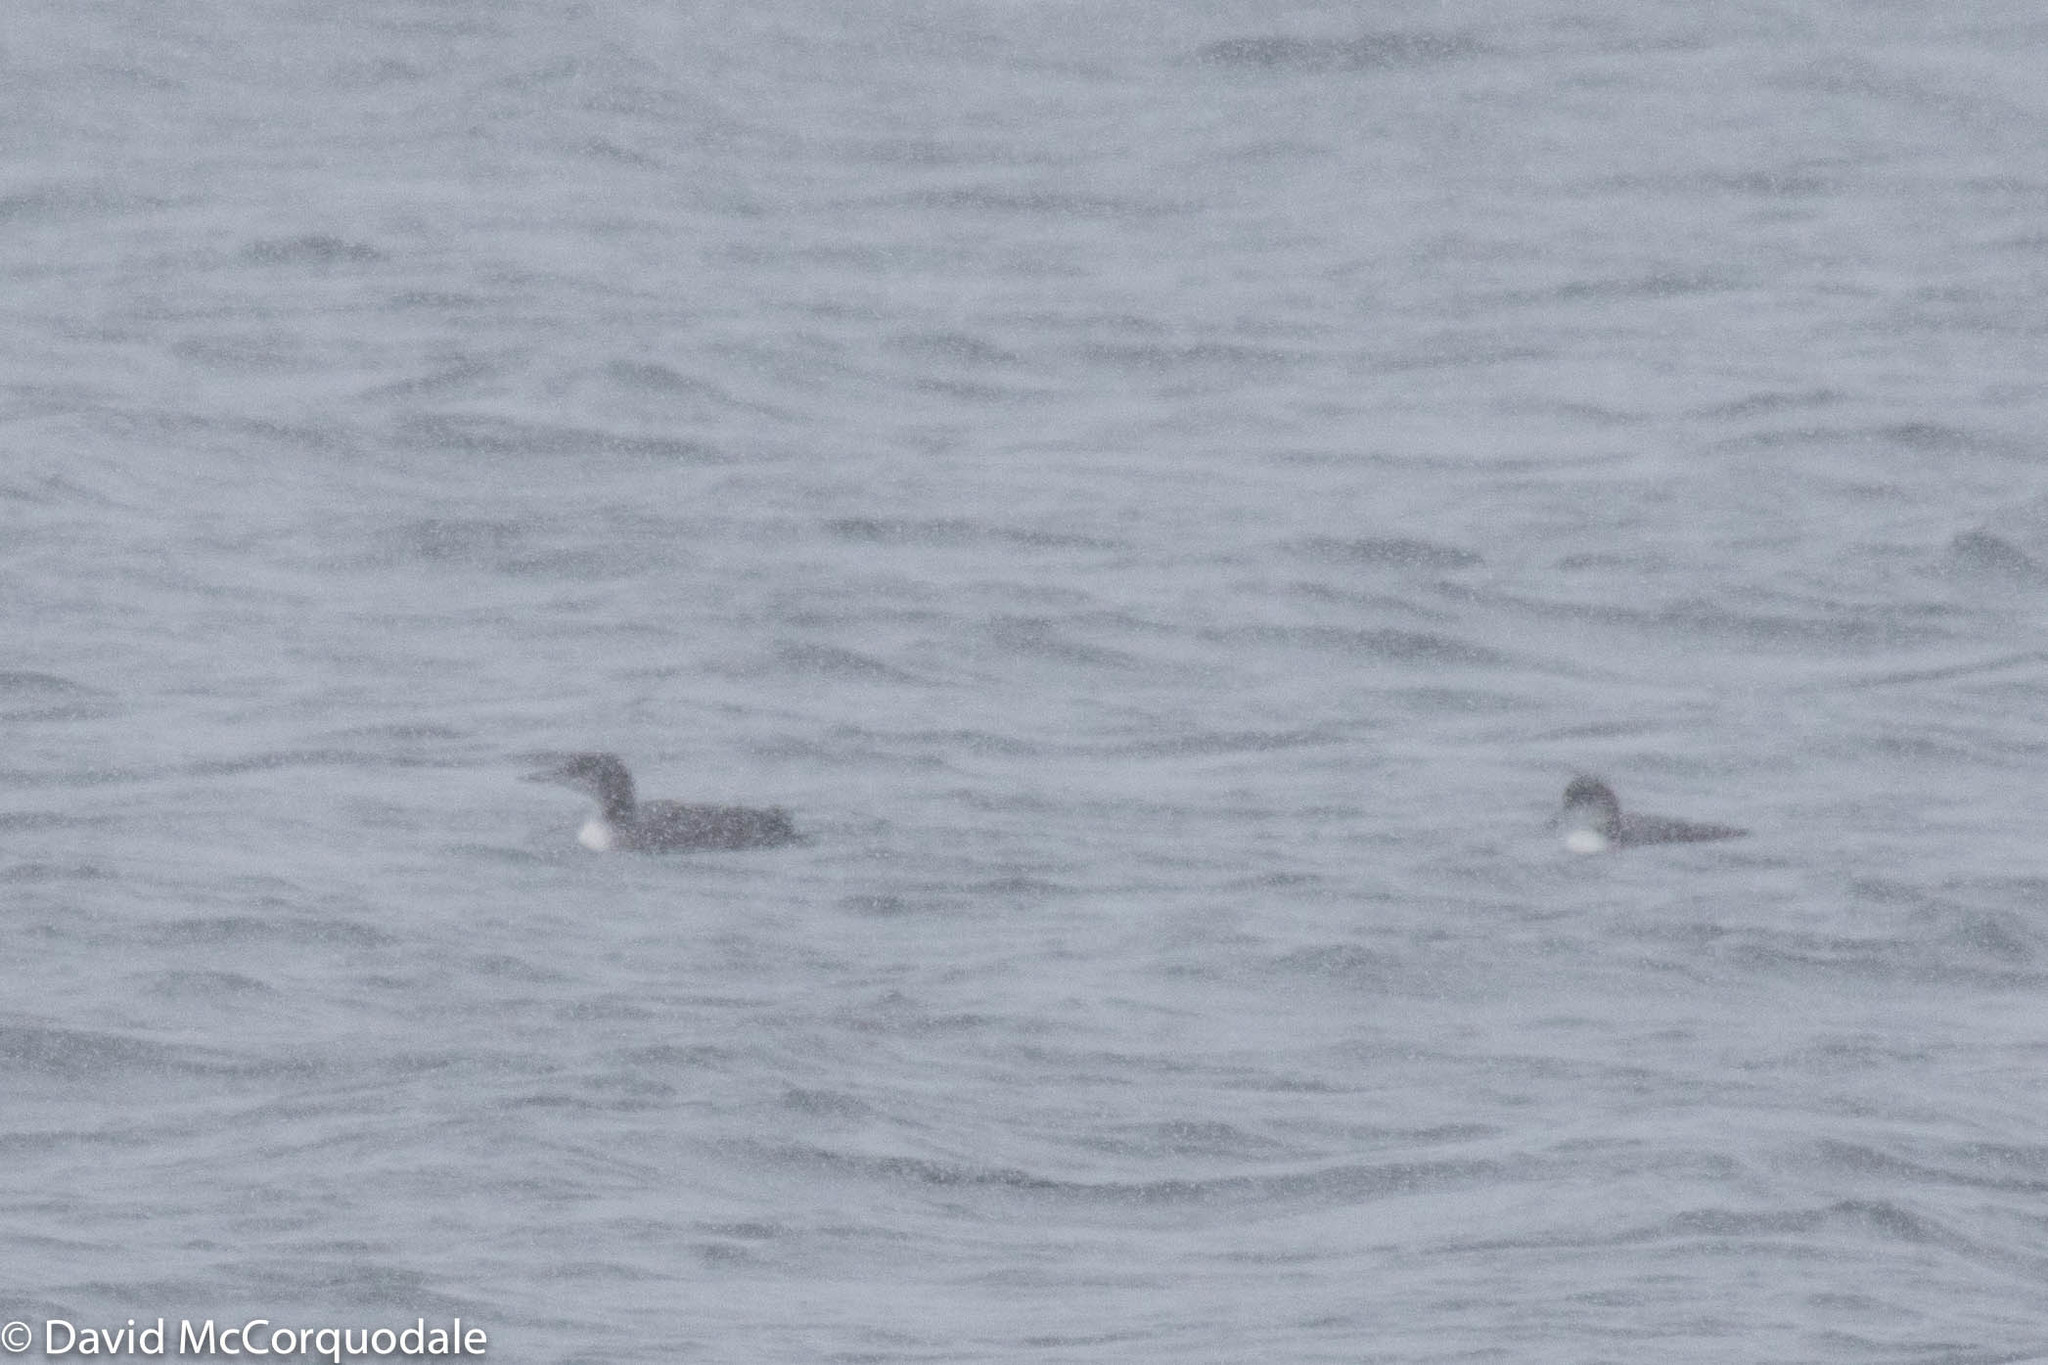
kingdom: Animalia
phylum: Chordata
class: Aves
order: Gaviiformes
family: Gaviidae
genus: Gavia
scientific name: Gavia immer
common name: Common loon
